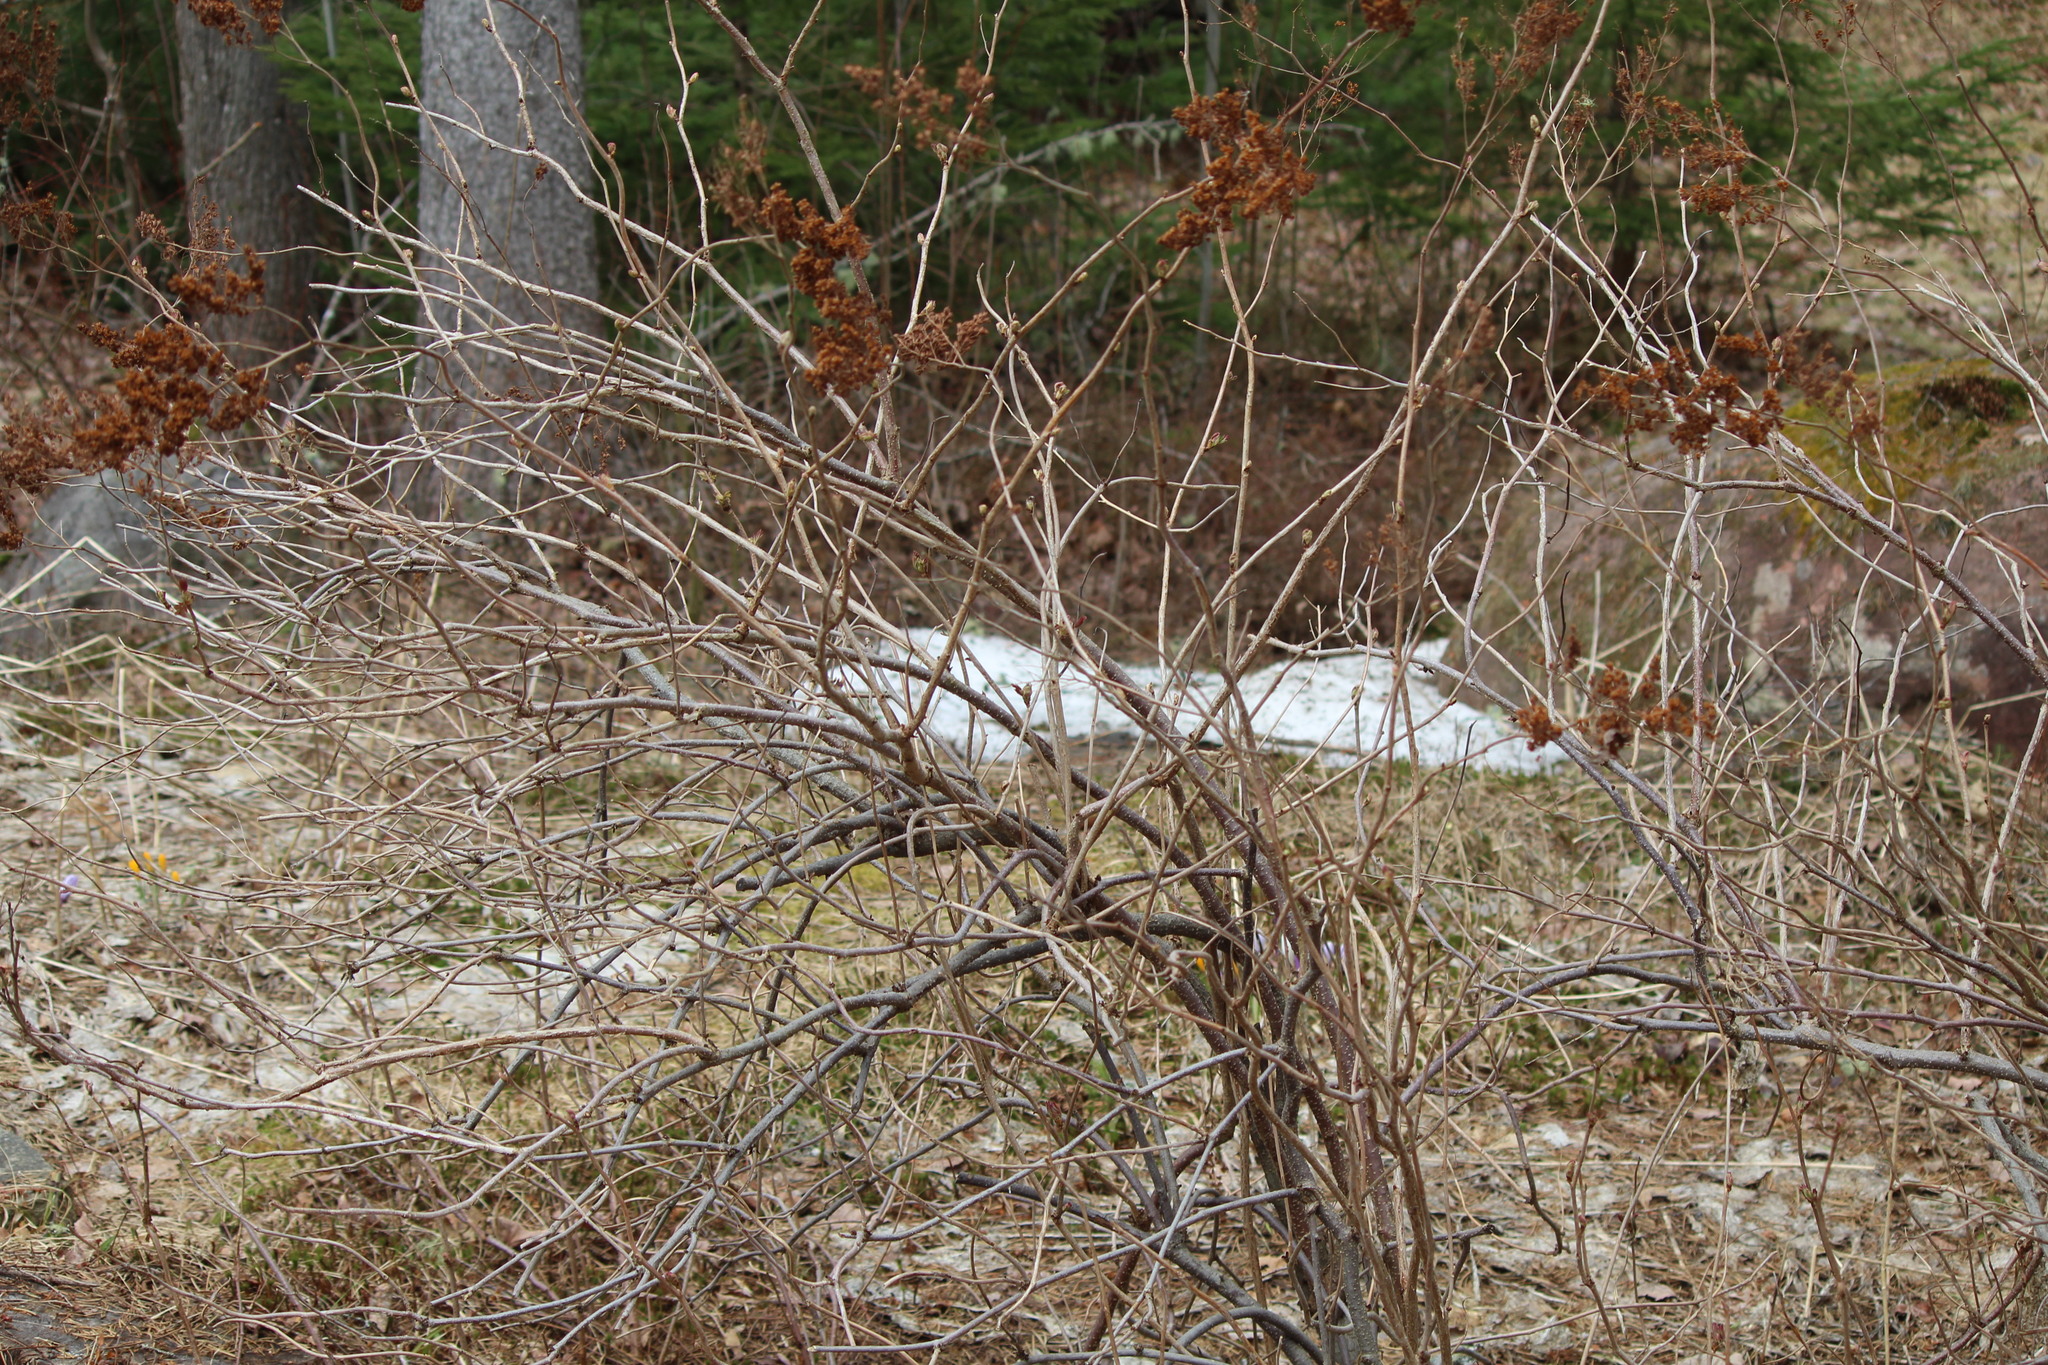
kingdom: Plantae
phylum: Tracheophyta
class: Magnoliopsida
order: Rosales
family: Rosaceae
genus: Sorbaria
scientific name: Sorbaria sorbifolia
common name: False spiraea
